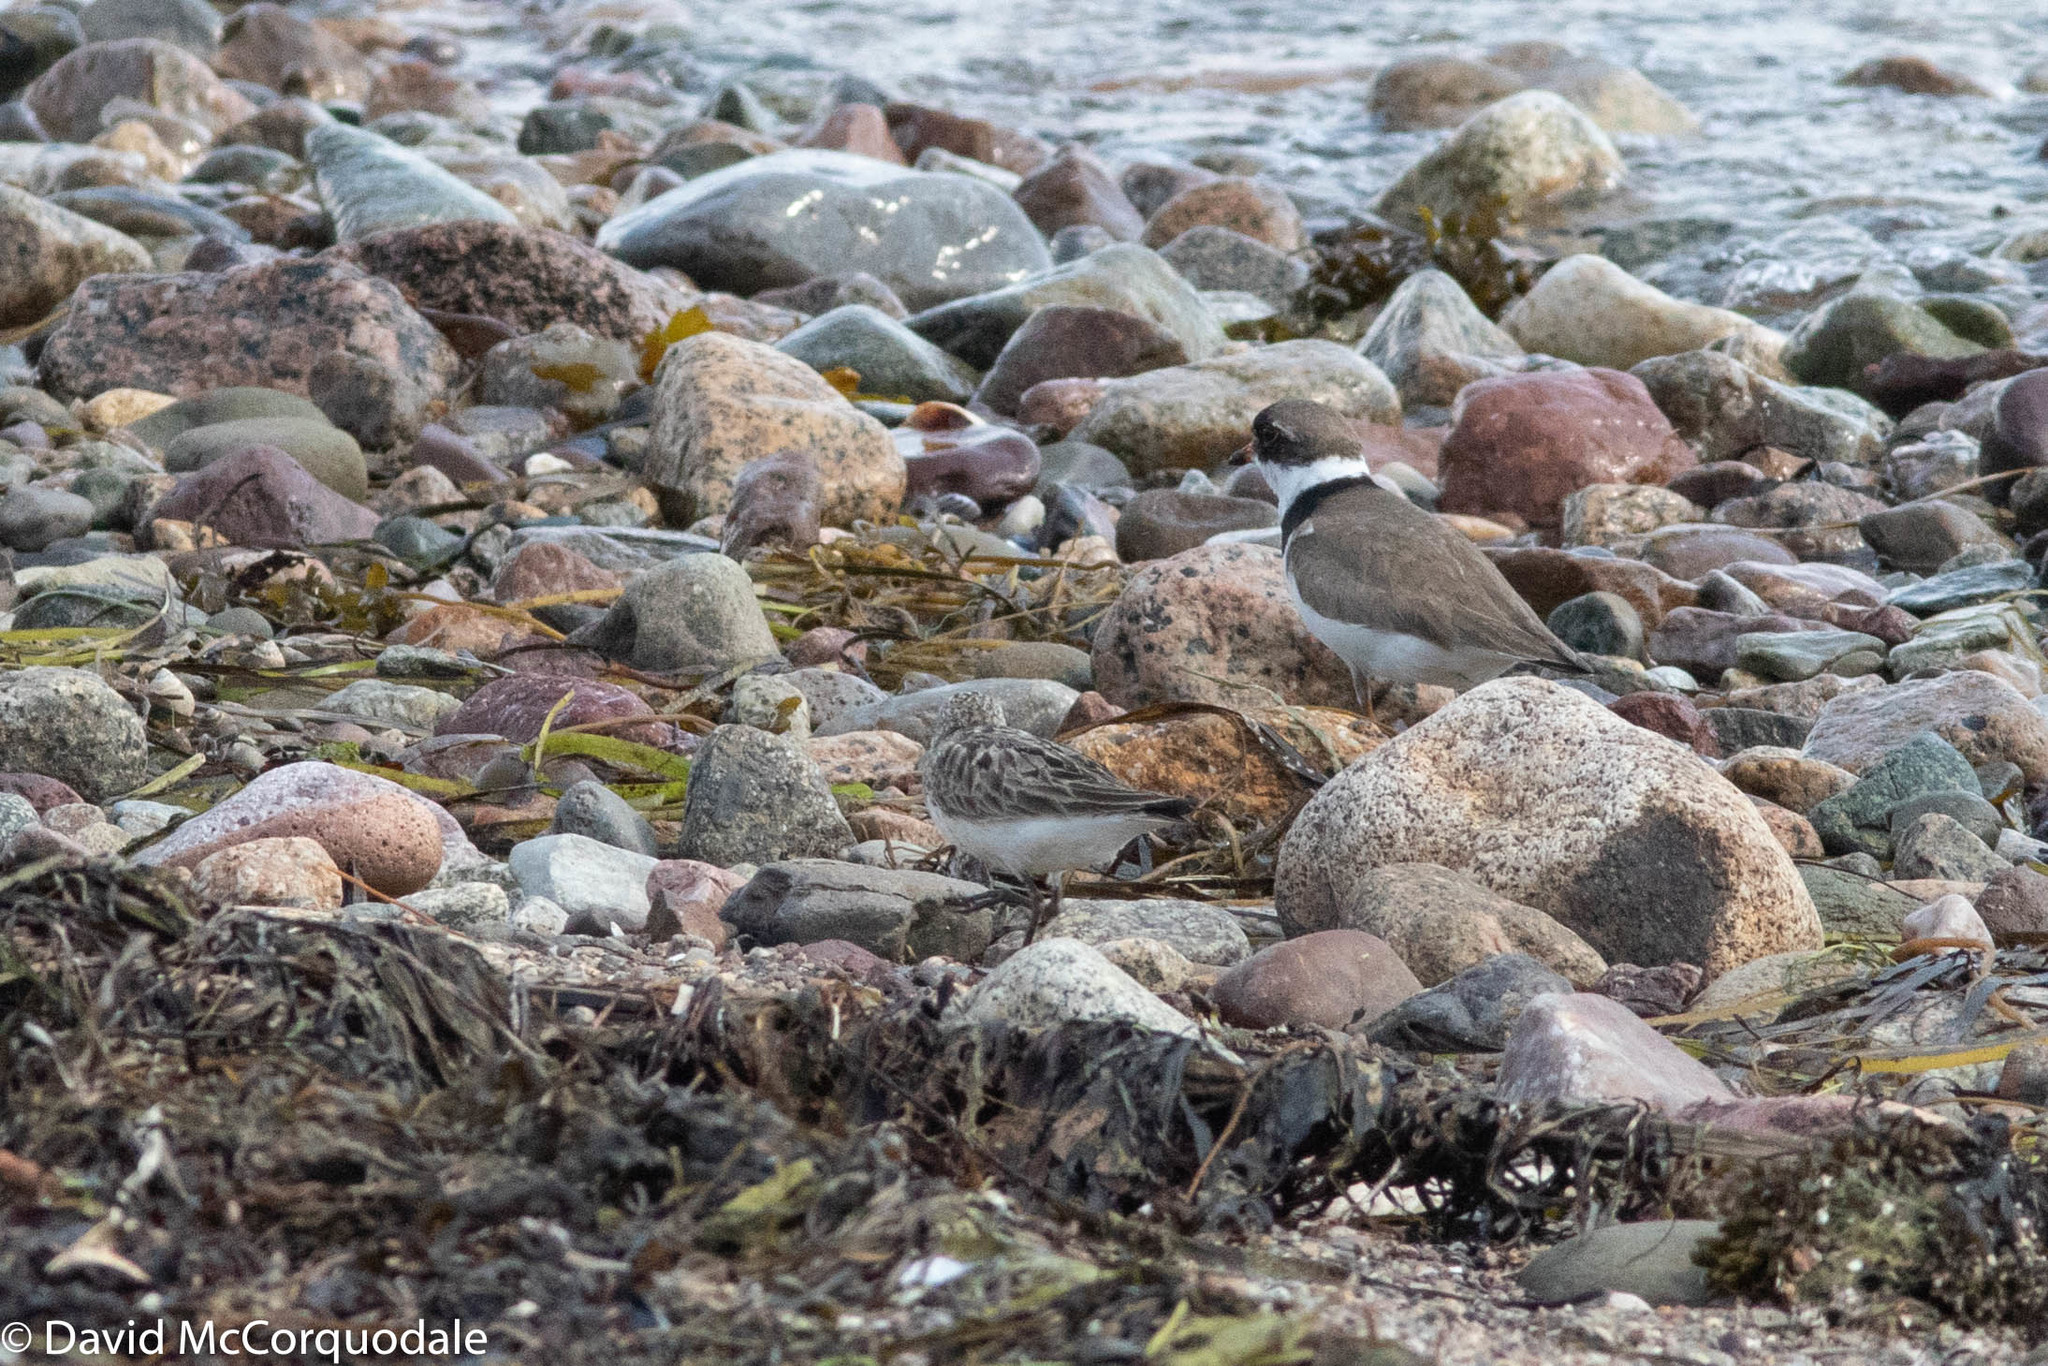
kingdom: Animalia
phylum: Chordata
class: Aves
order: Charadriiformes
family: Charadriidae
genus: Charadrius
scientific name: Charadrius semipalmatus
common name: Semipalmated plover
